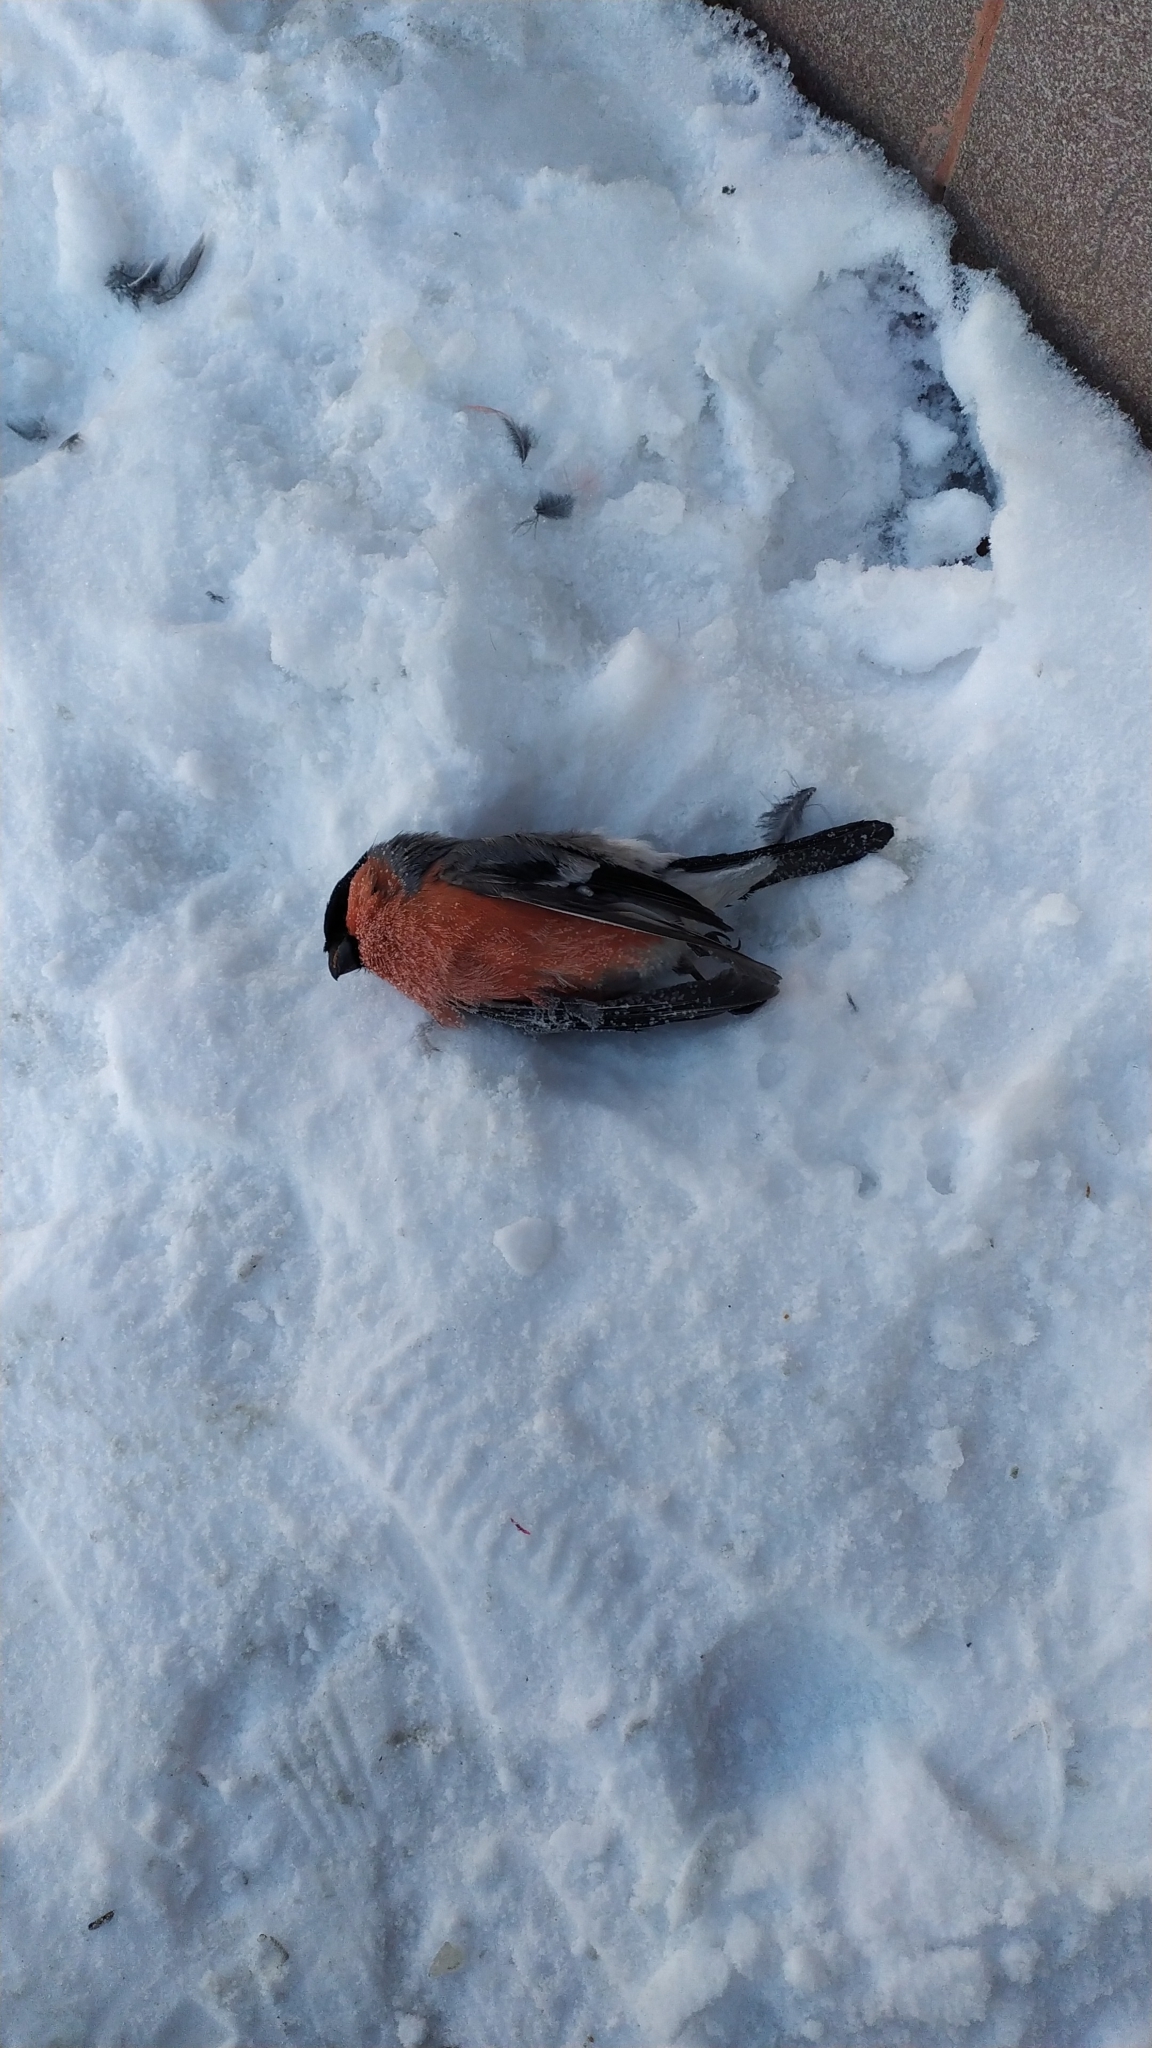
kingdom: Animalia
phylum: Chordata
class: Aves
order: Passeriformes
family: Fringillidae
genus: Pyrrhula
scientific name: Pyrrhula pyrrhula
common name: Eurasian bullfinch
